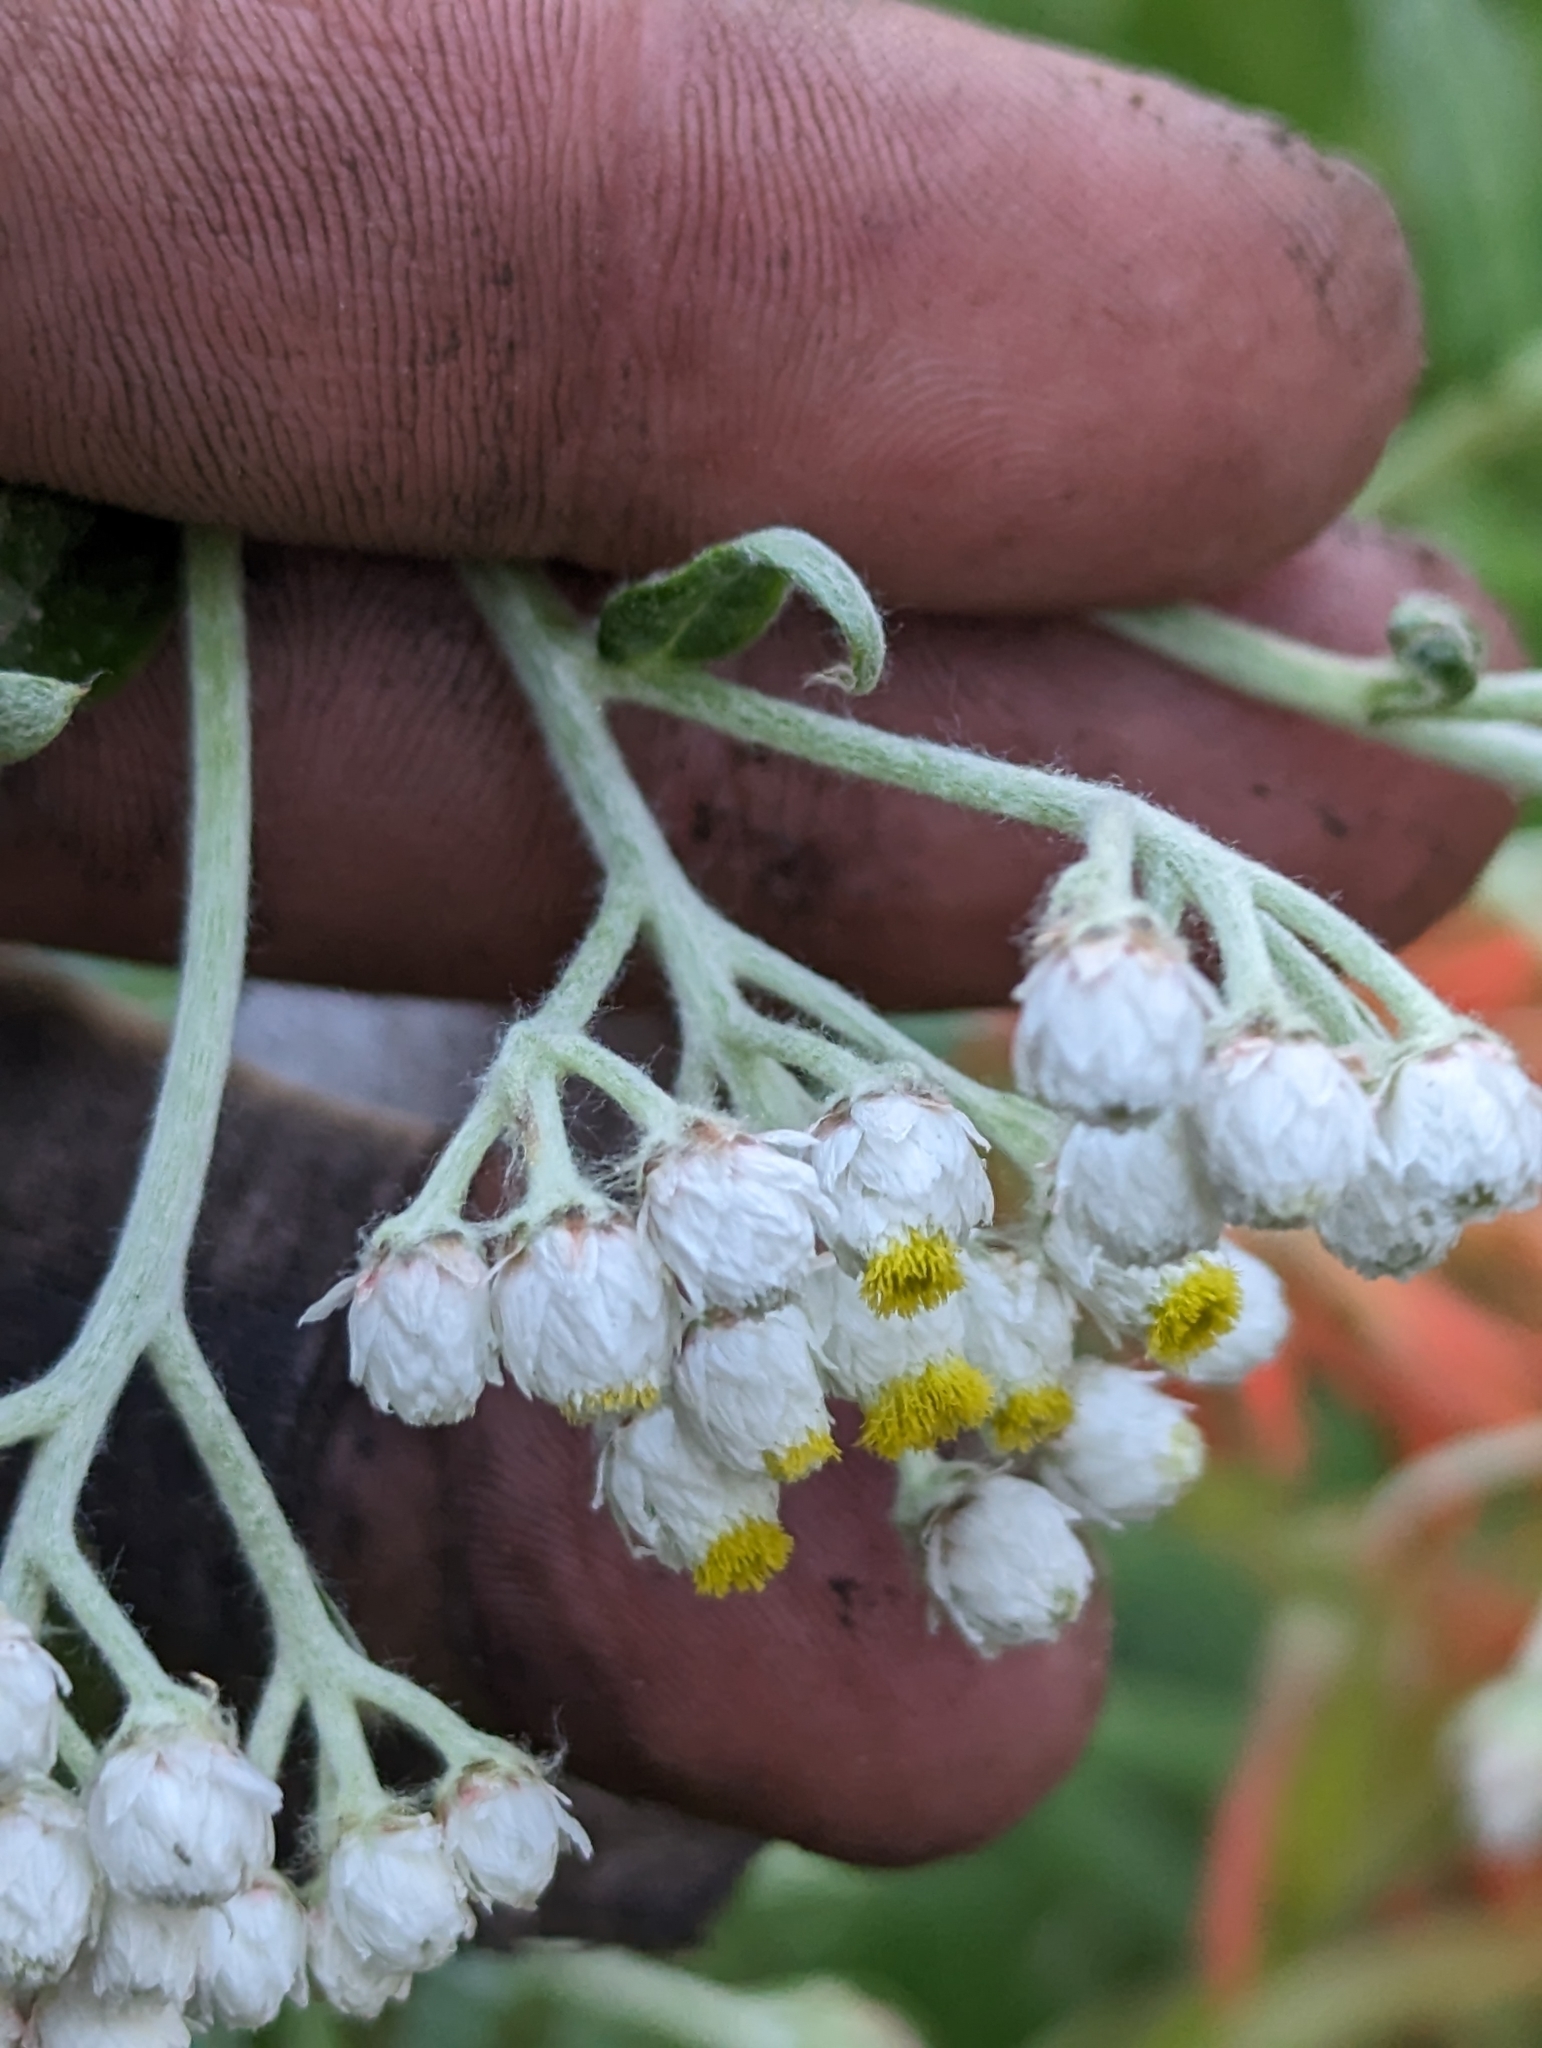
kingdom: Plantae
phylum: Tracheophyta
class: Magnoliopsida
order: Asterales
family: Asteraceae
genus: Anaphalis
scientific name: Anaphalis margaritacea
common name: Pearly everlasting
